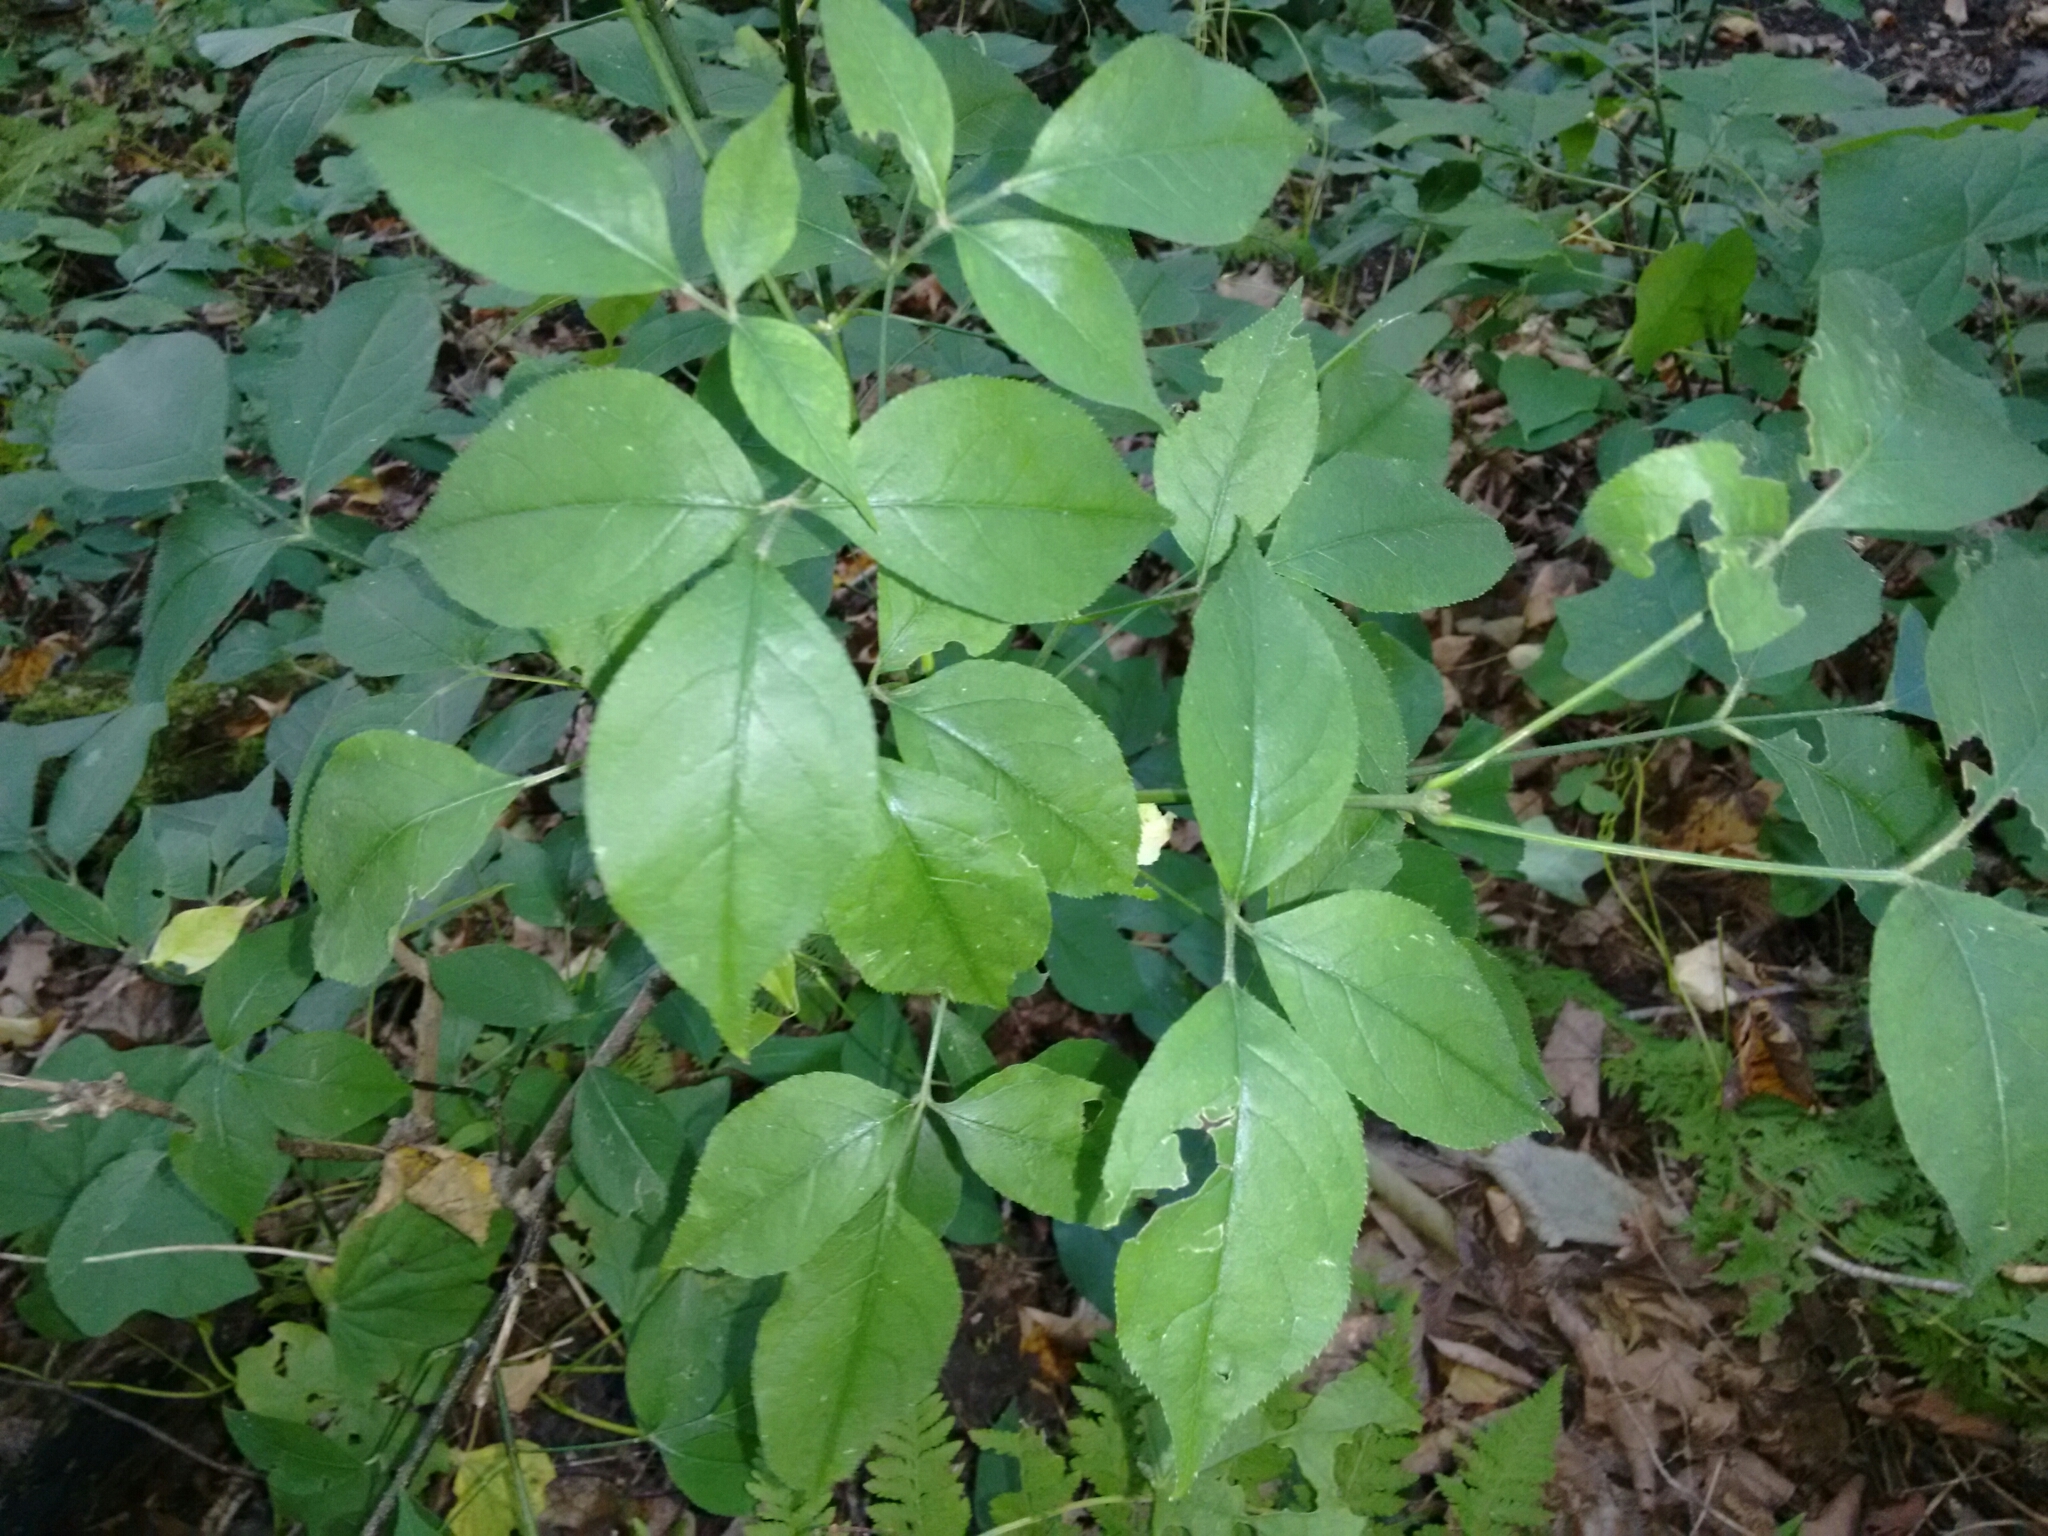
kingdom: Plantae
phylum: Tracheophyta
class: Magnoliopsida
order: Crossosomatales
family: Staphyleaceae
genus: Staphylea
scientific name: Staphylea trifolia
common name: American bladdernut
